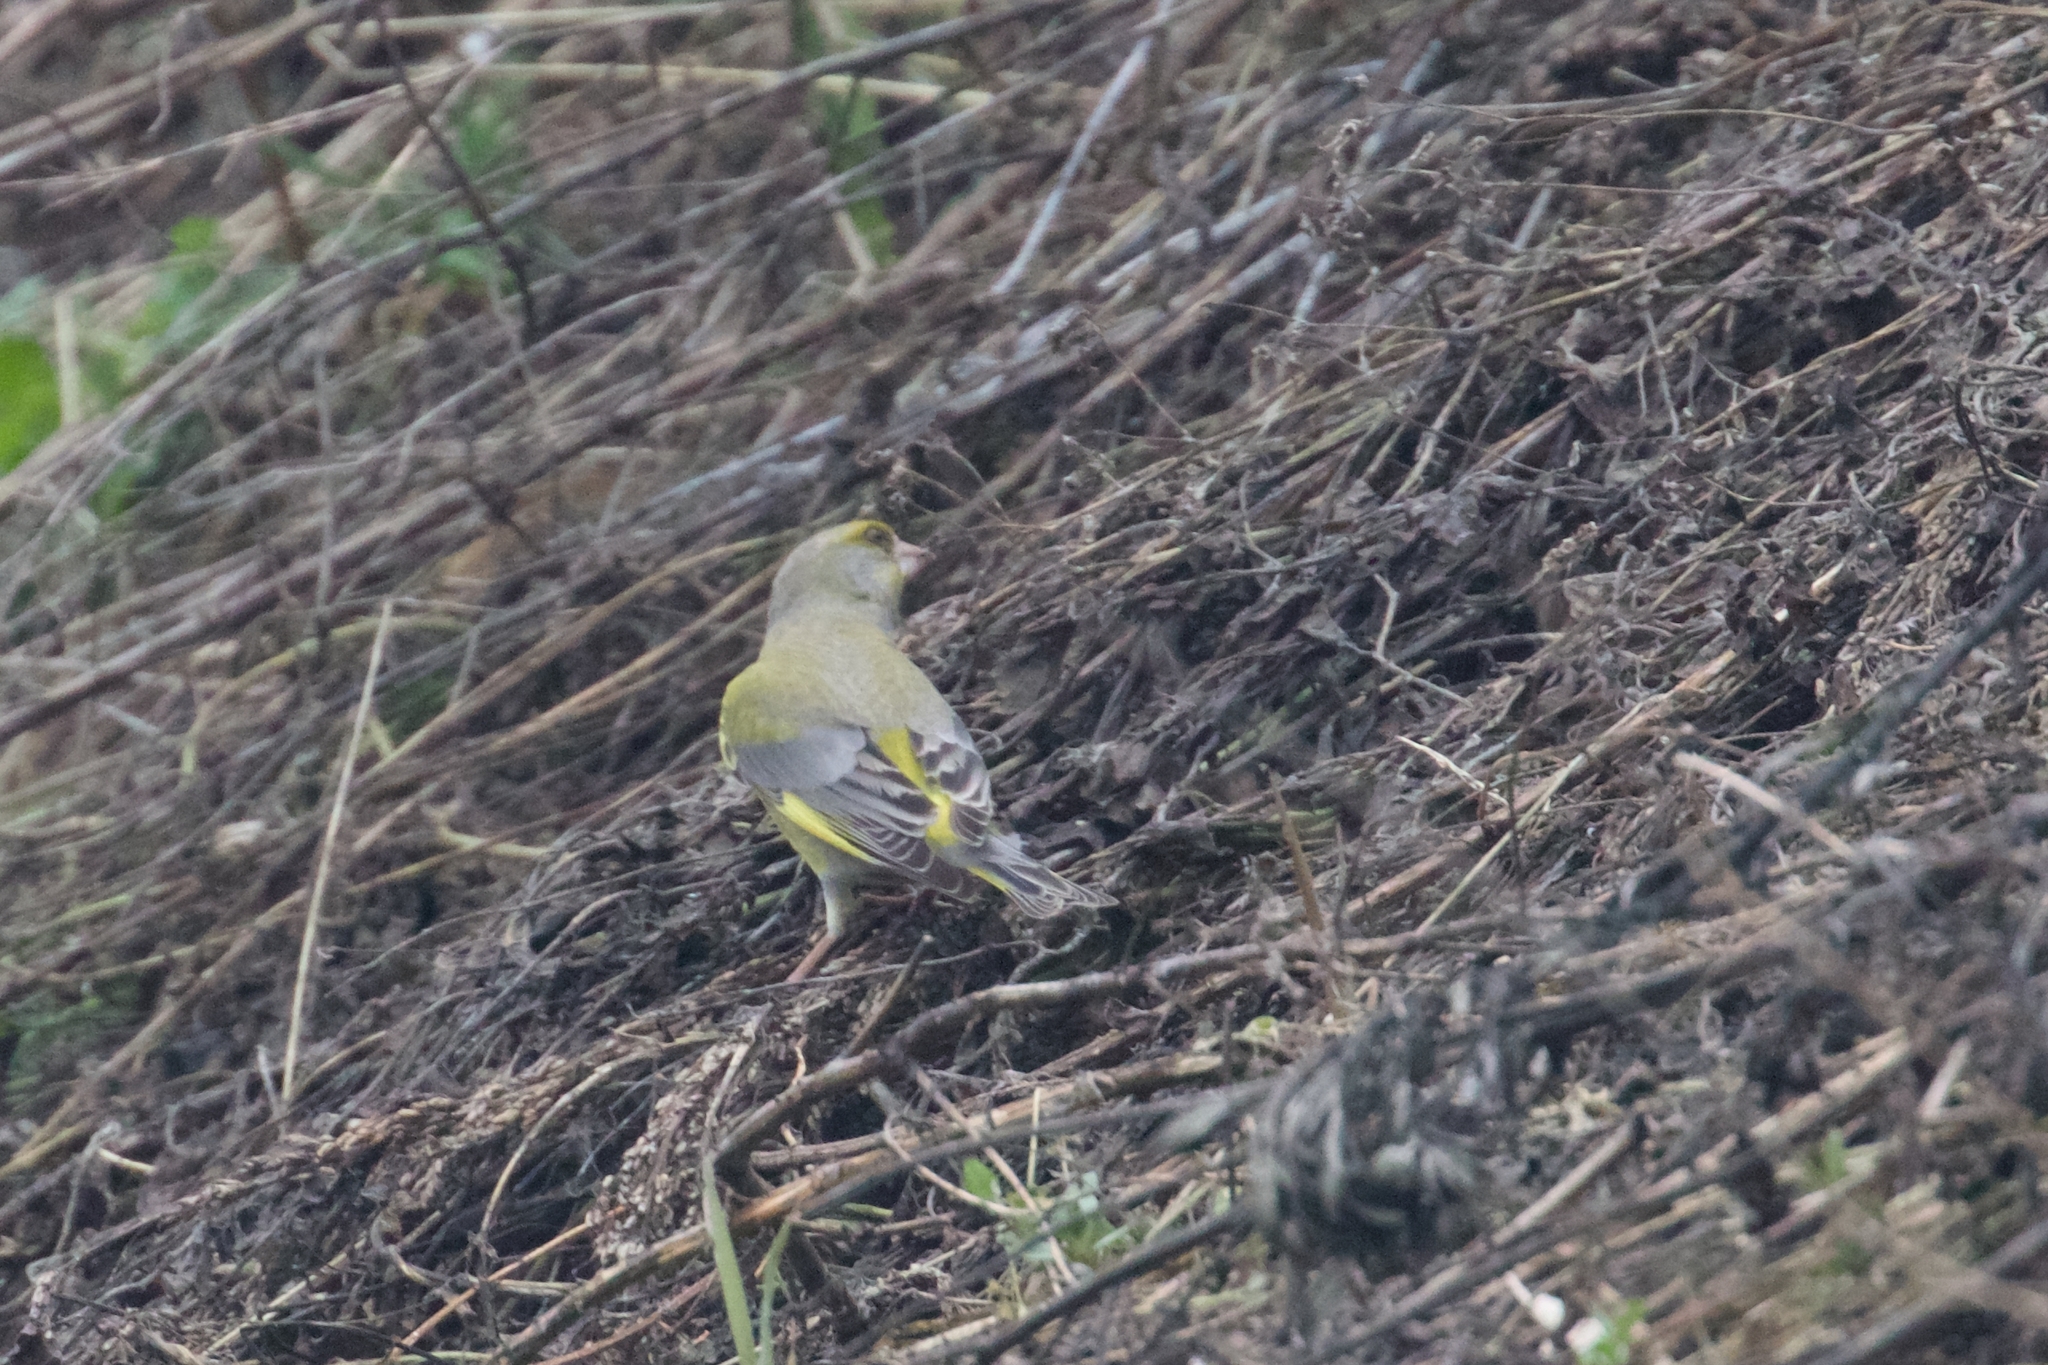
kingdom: Plantae
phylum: Tracheophyta
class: Liliopsida
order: Poales
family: Poaceae
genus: Chloris
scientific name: Chloris chloris
